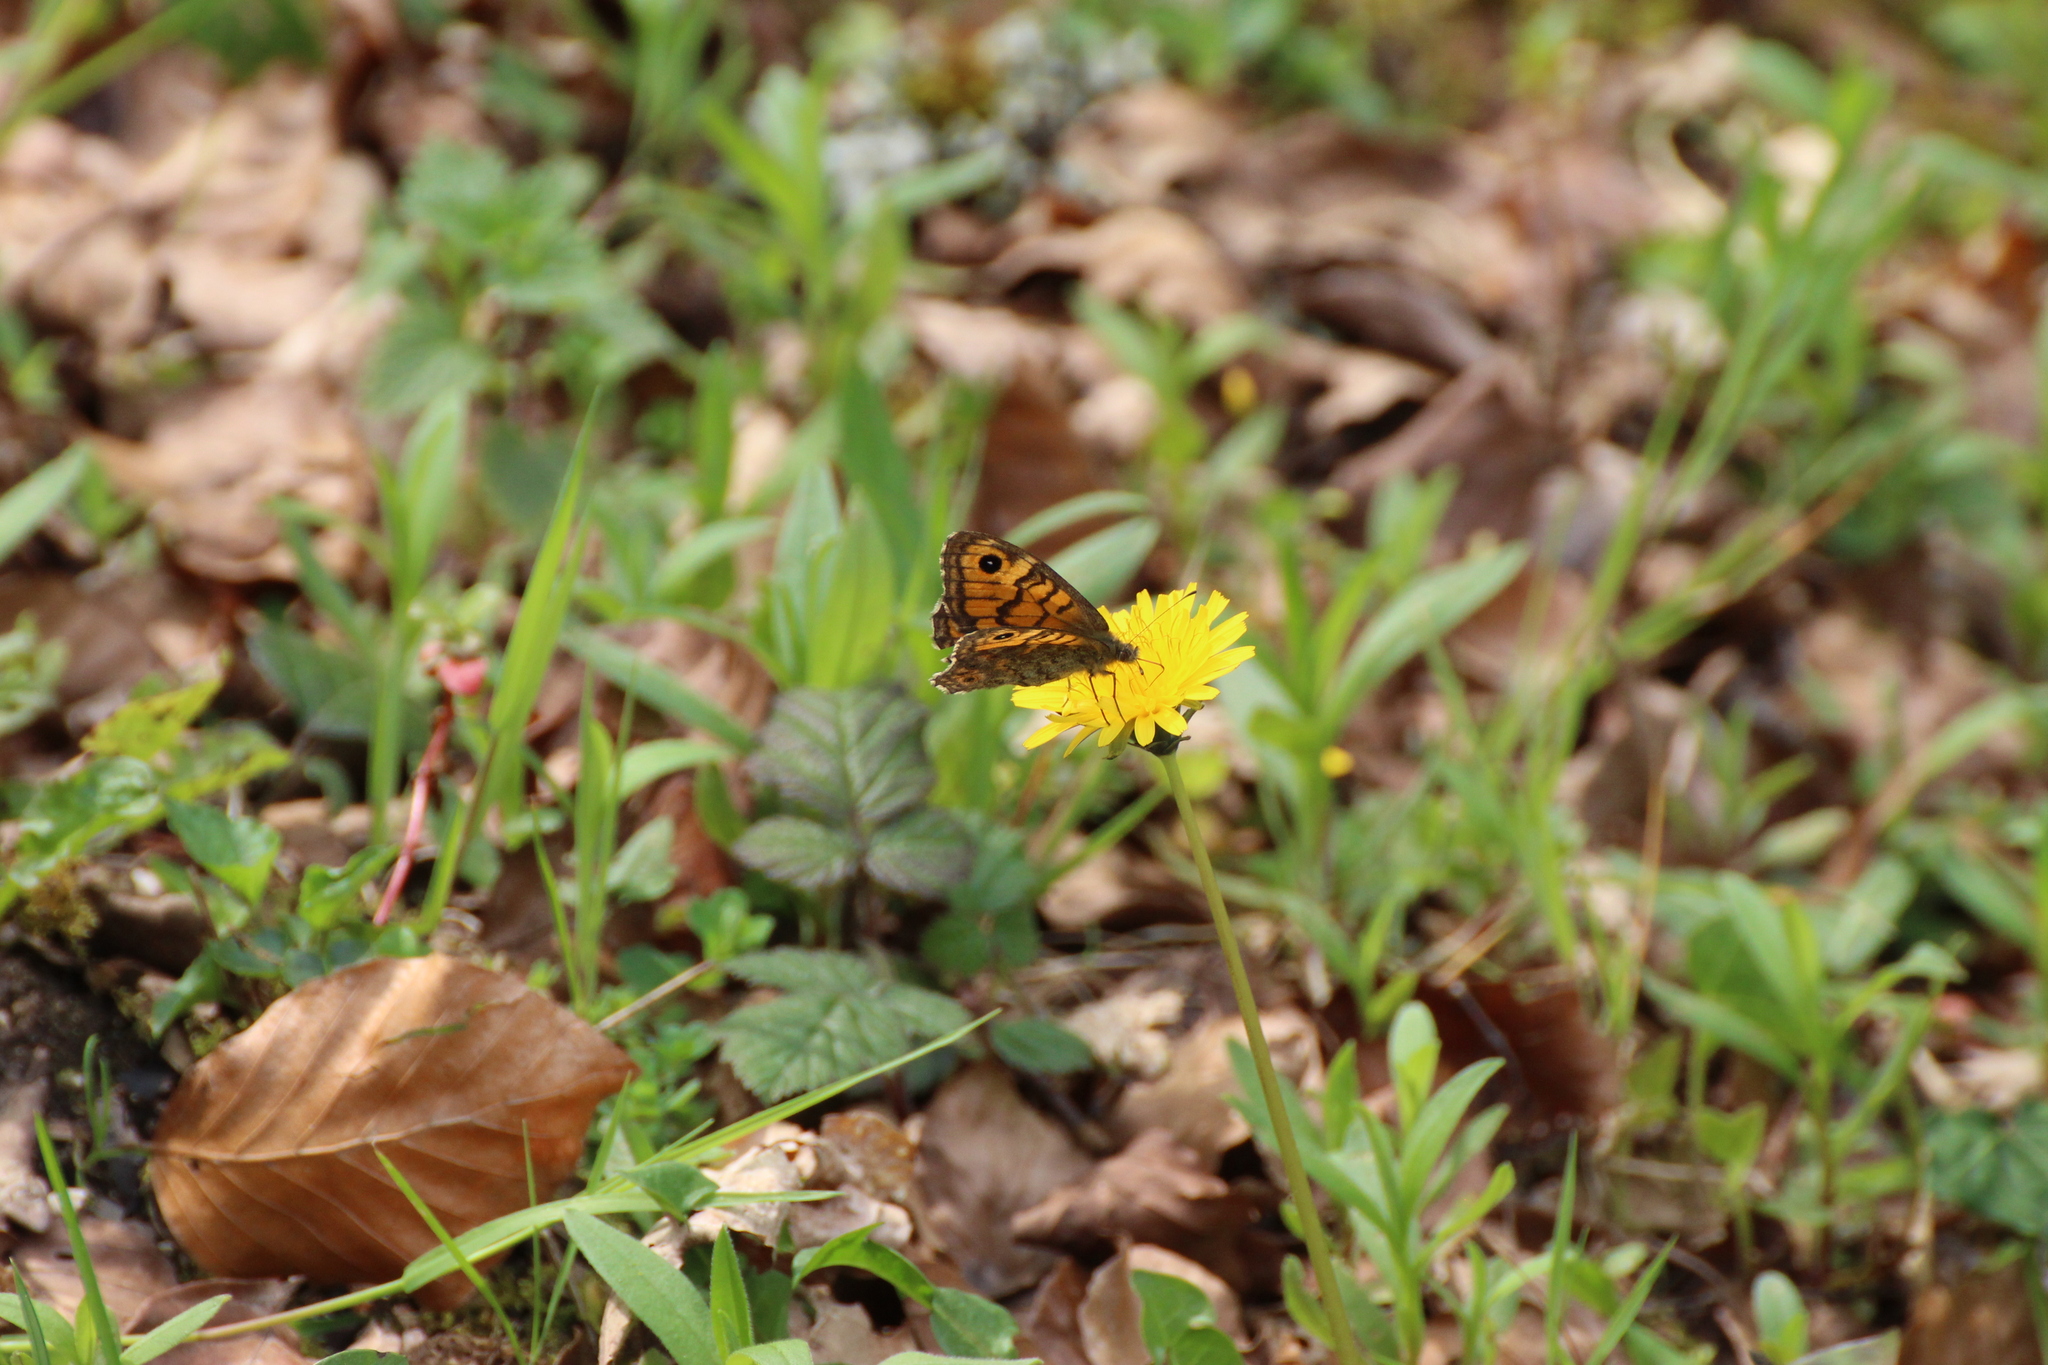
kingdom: Animalia
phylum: Arthropoda
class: Insecta
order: Lepidoptera
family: Nymphalidae
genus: Pararge
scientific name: Pararge Lasiommata megera
